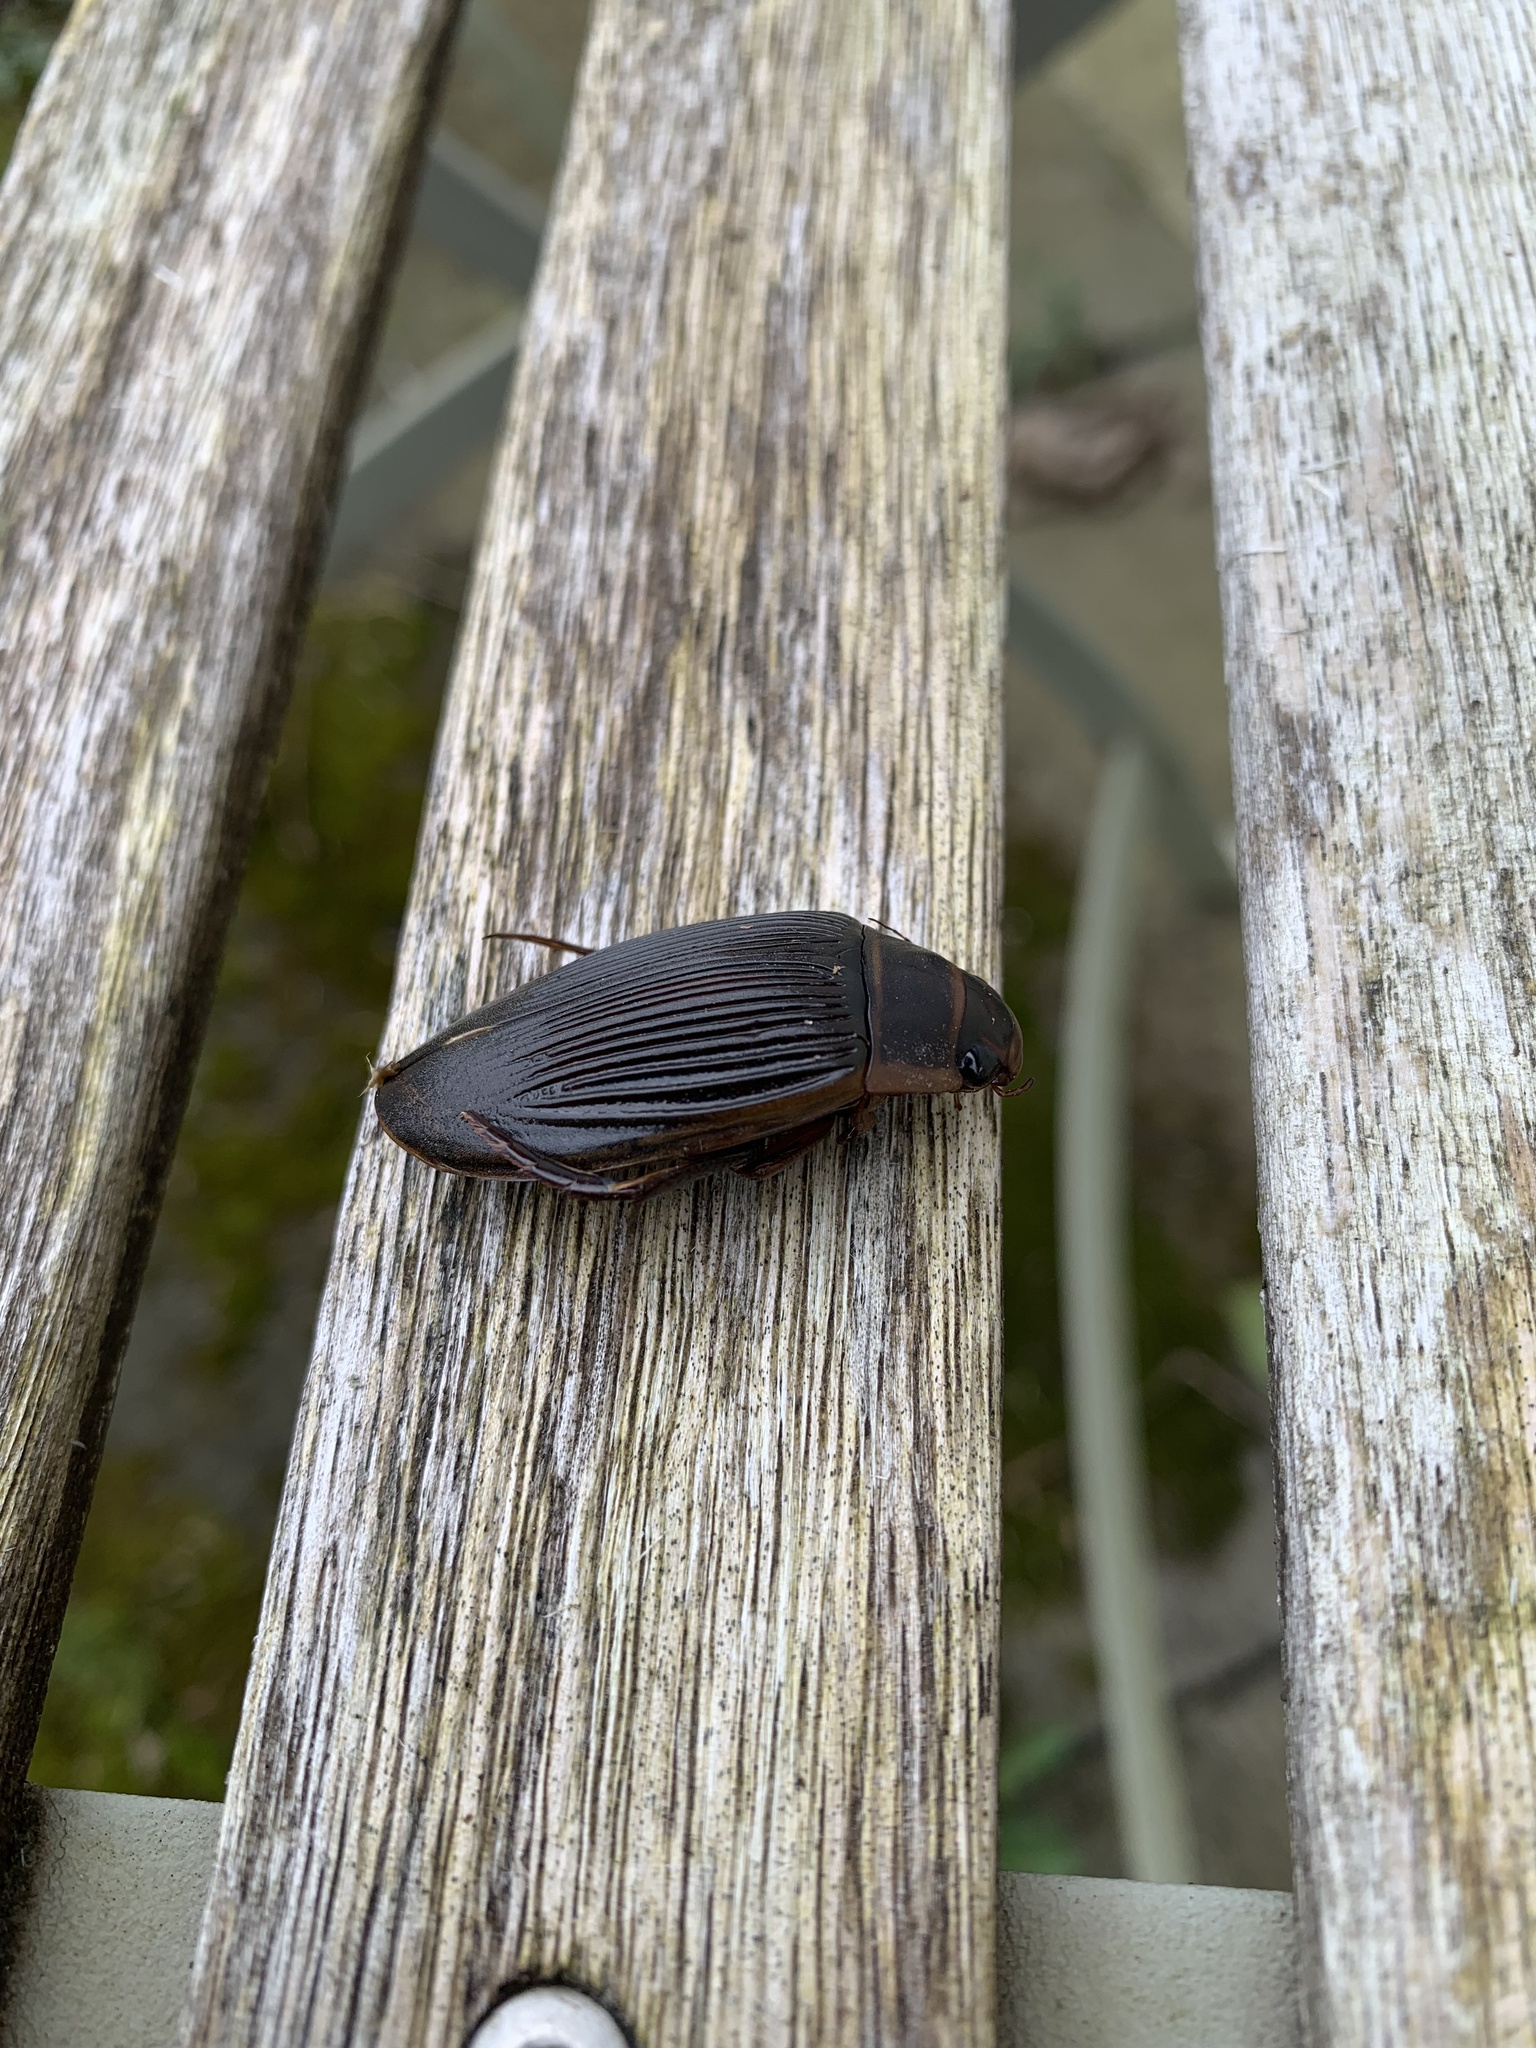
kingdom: Animalia
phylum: Arthropoda
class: Insecta
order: Coleoptera
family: Dytiscidae
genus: Dytiscus
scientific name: Dytiscus marginalis
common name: Great water beetle
